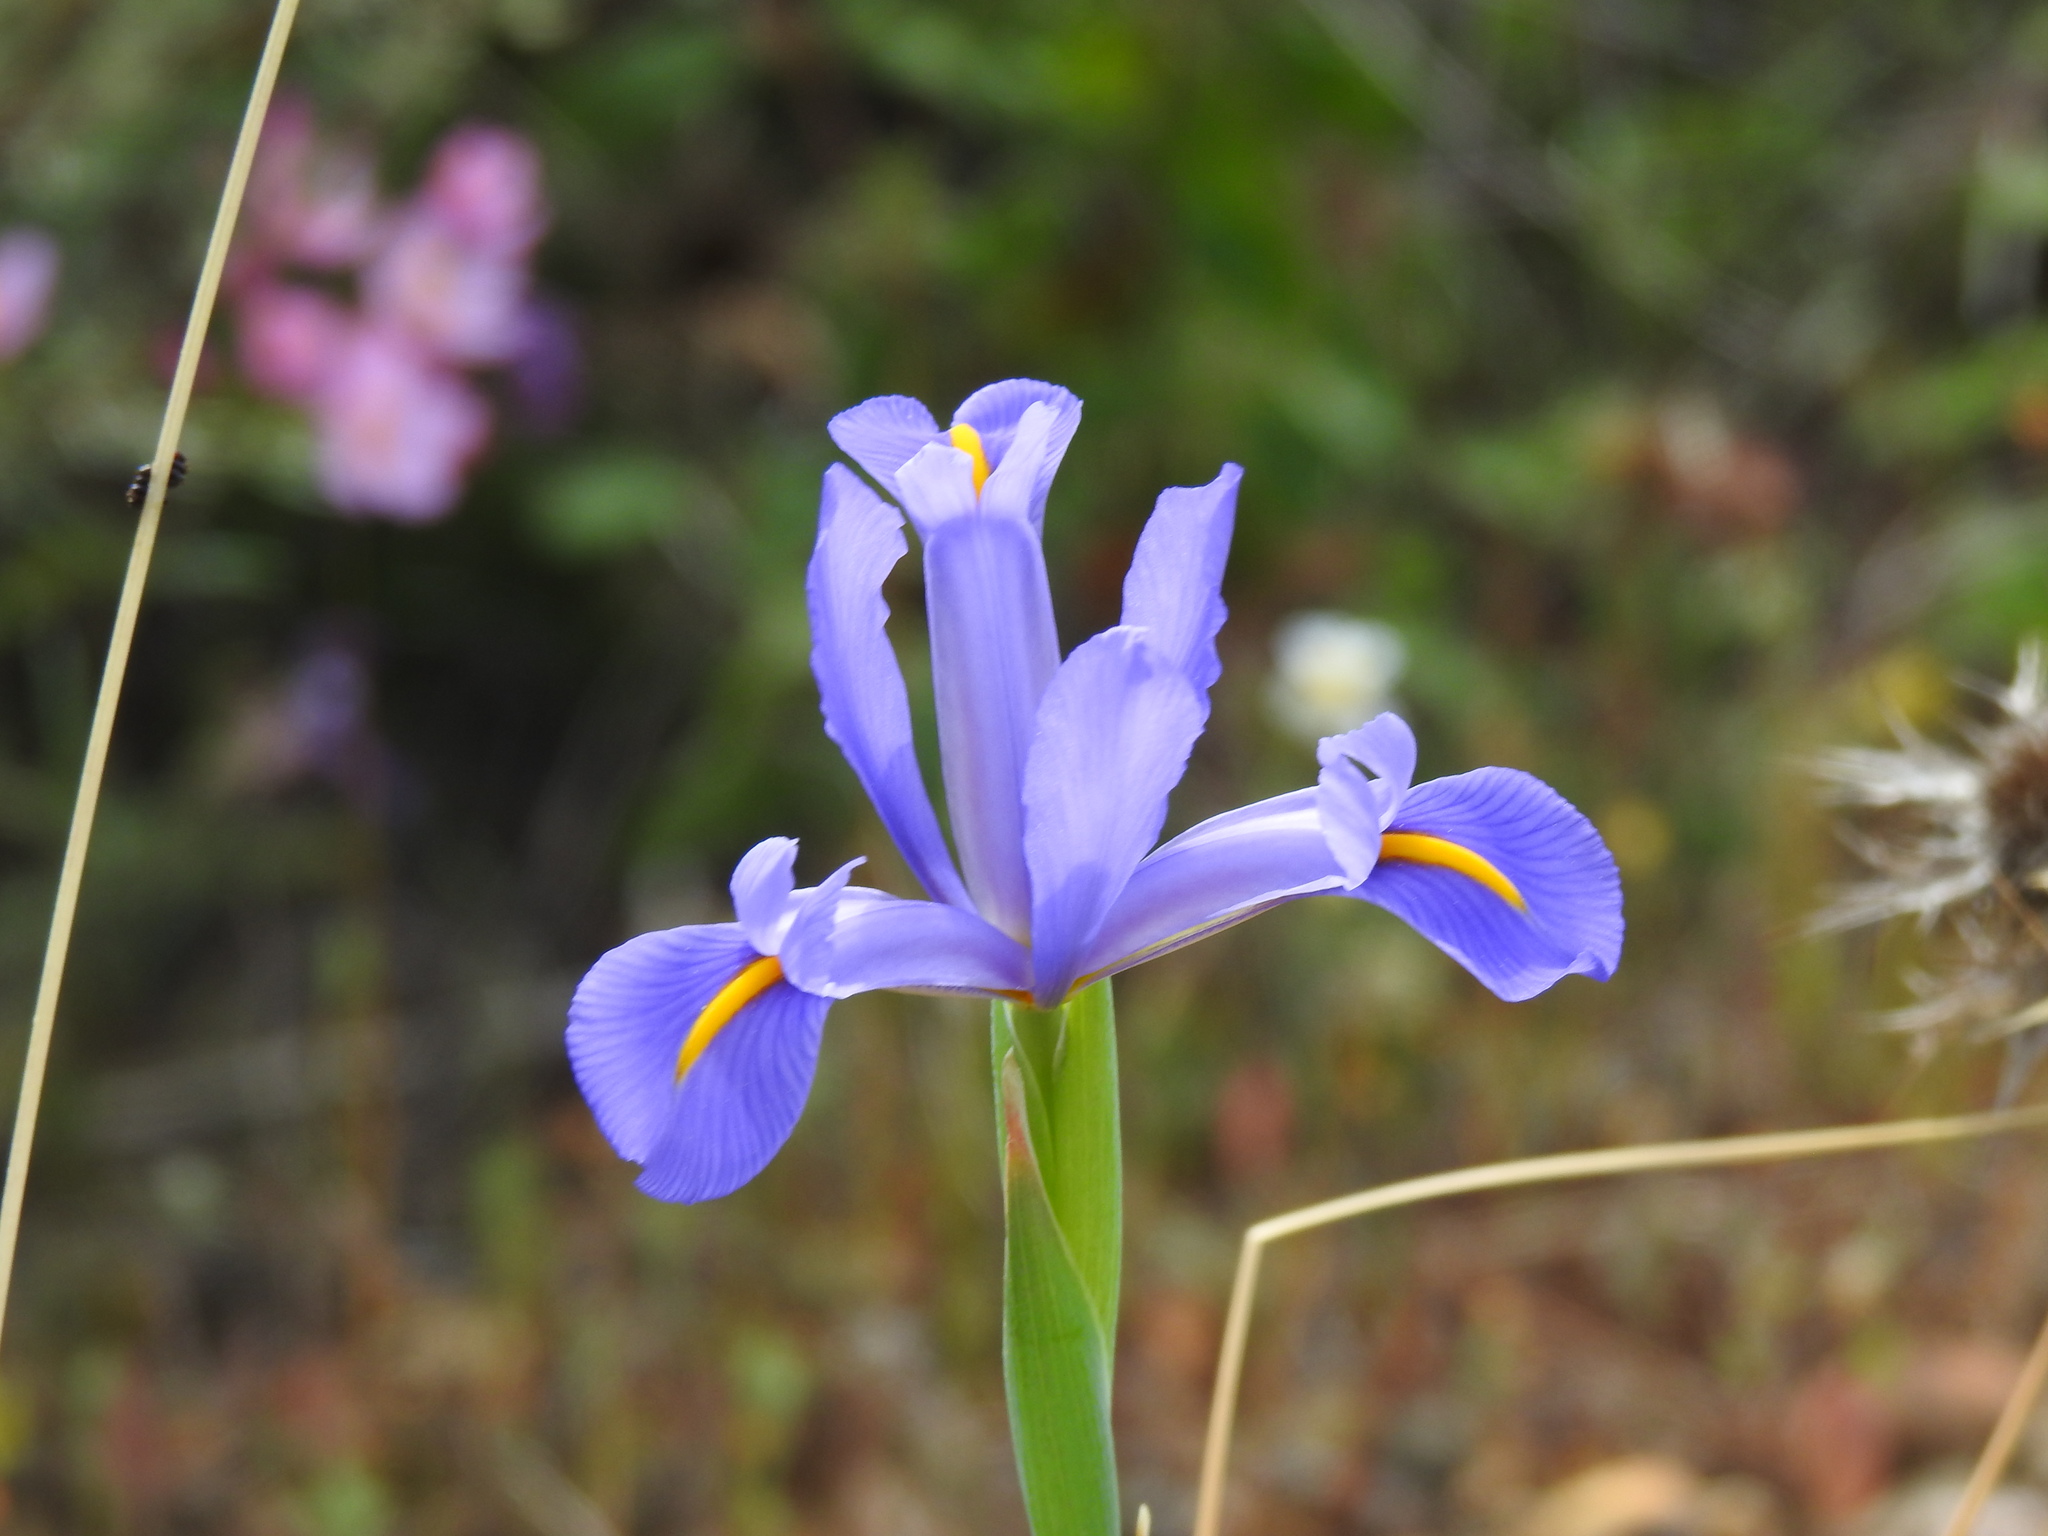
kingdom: Plantae
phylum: Tracheophyta
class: Liliopsida
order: Asparagales
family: Iridaceae
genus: Iris
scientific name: Iris xiphium
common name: Spanish iris
